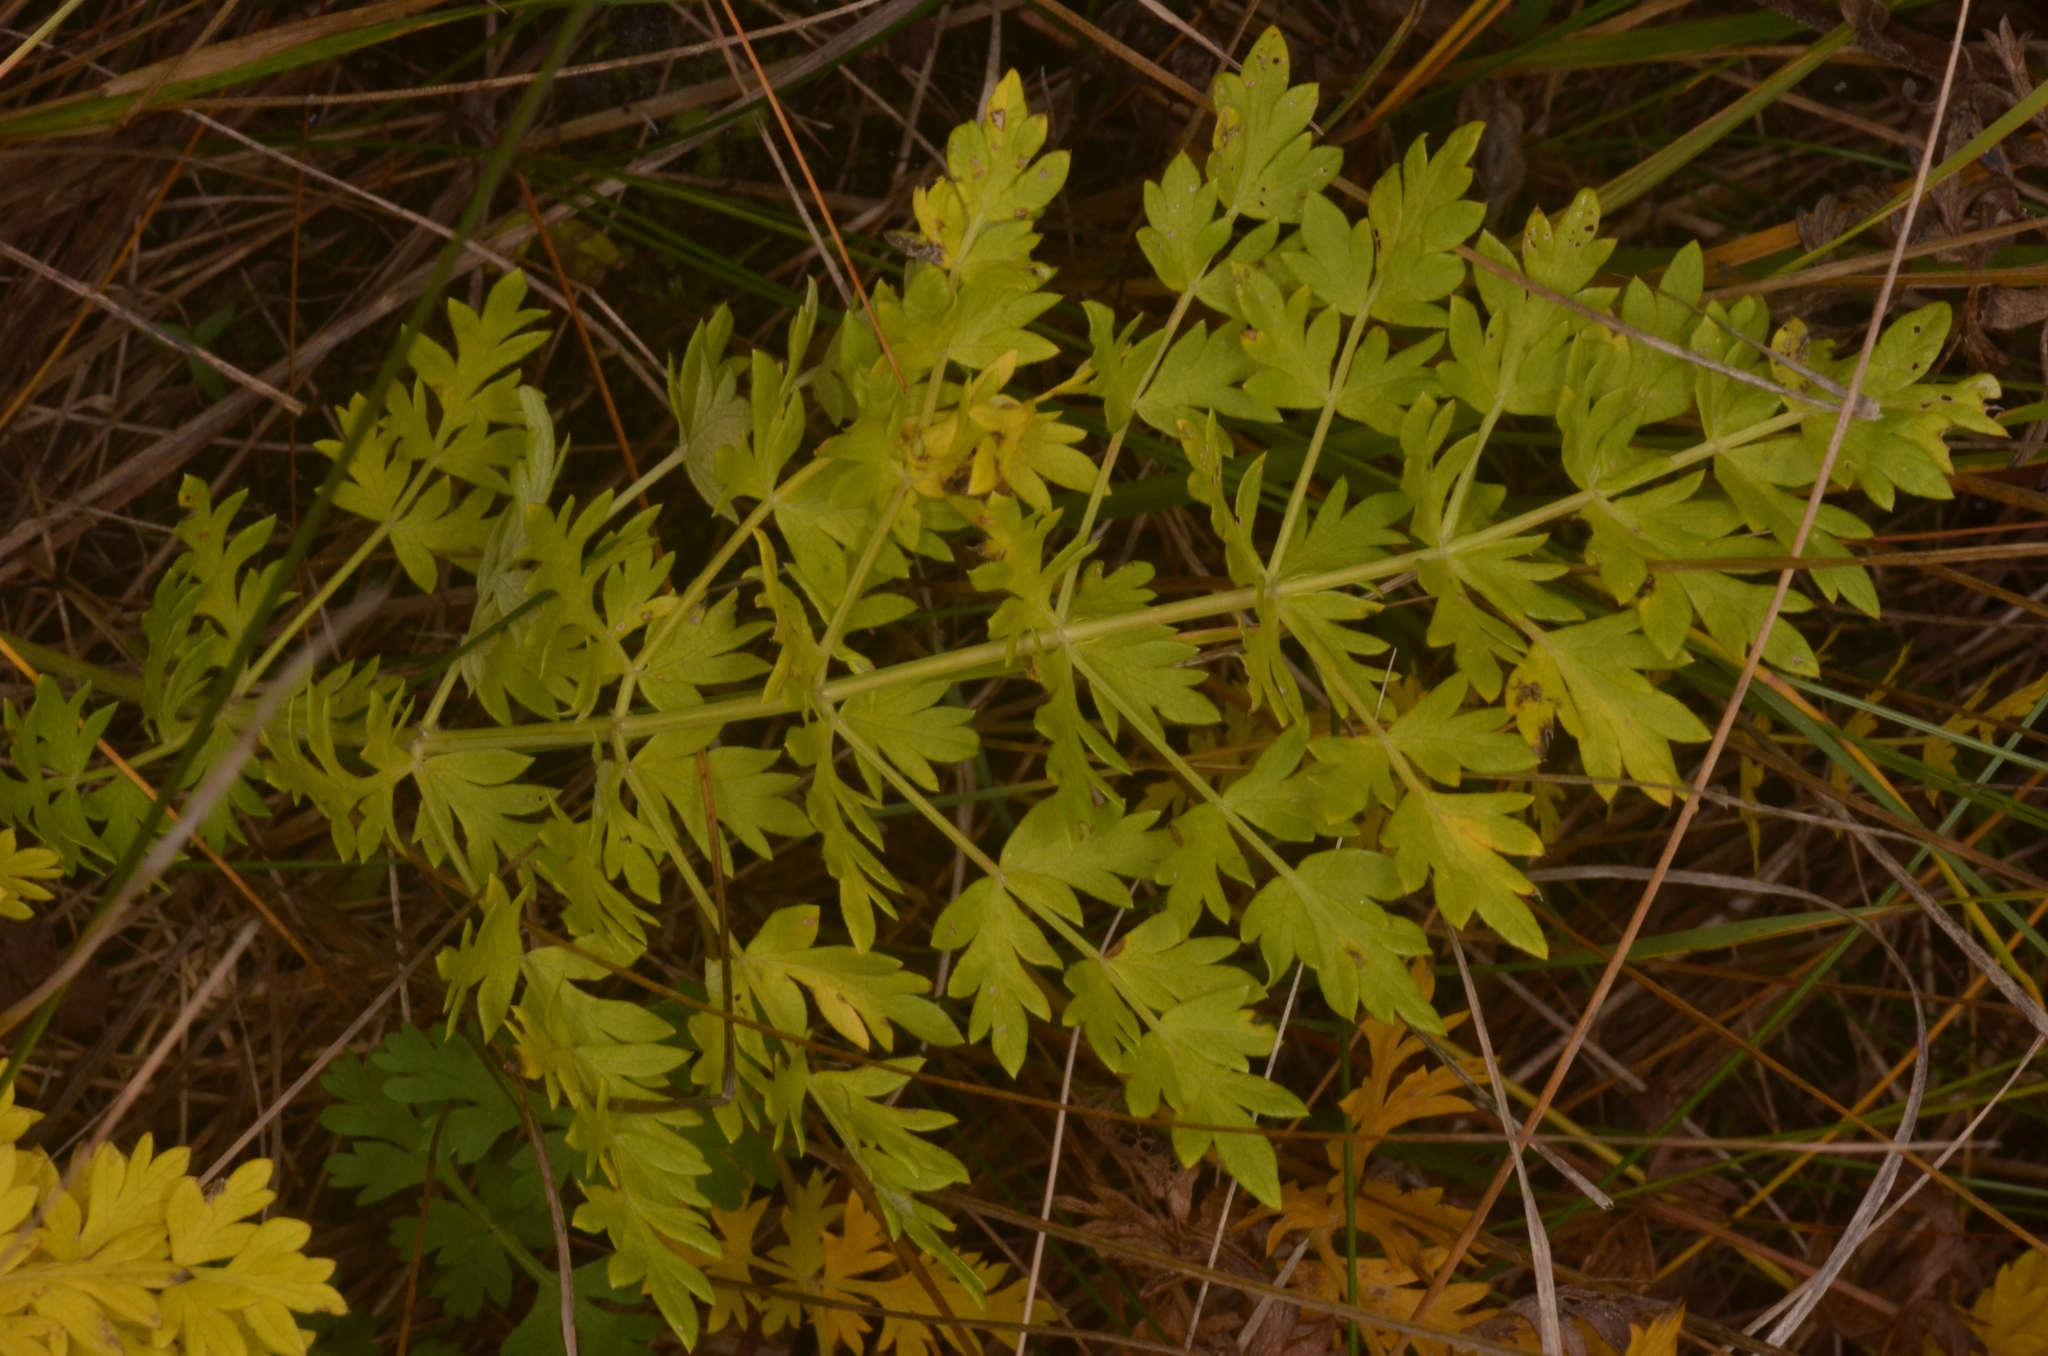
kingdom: Plantae
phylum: Tracheophyta
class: Magnoliopsida
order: Apiales
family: Apiaceae
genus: Seseli
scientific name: Seseli libanotis
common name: Mooncarrot
